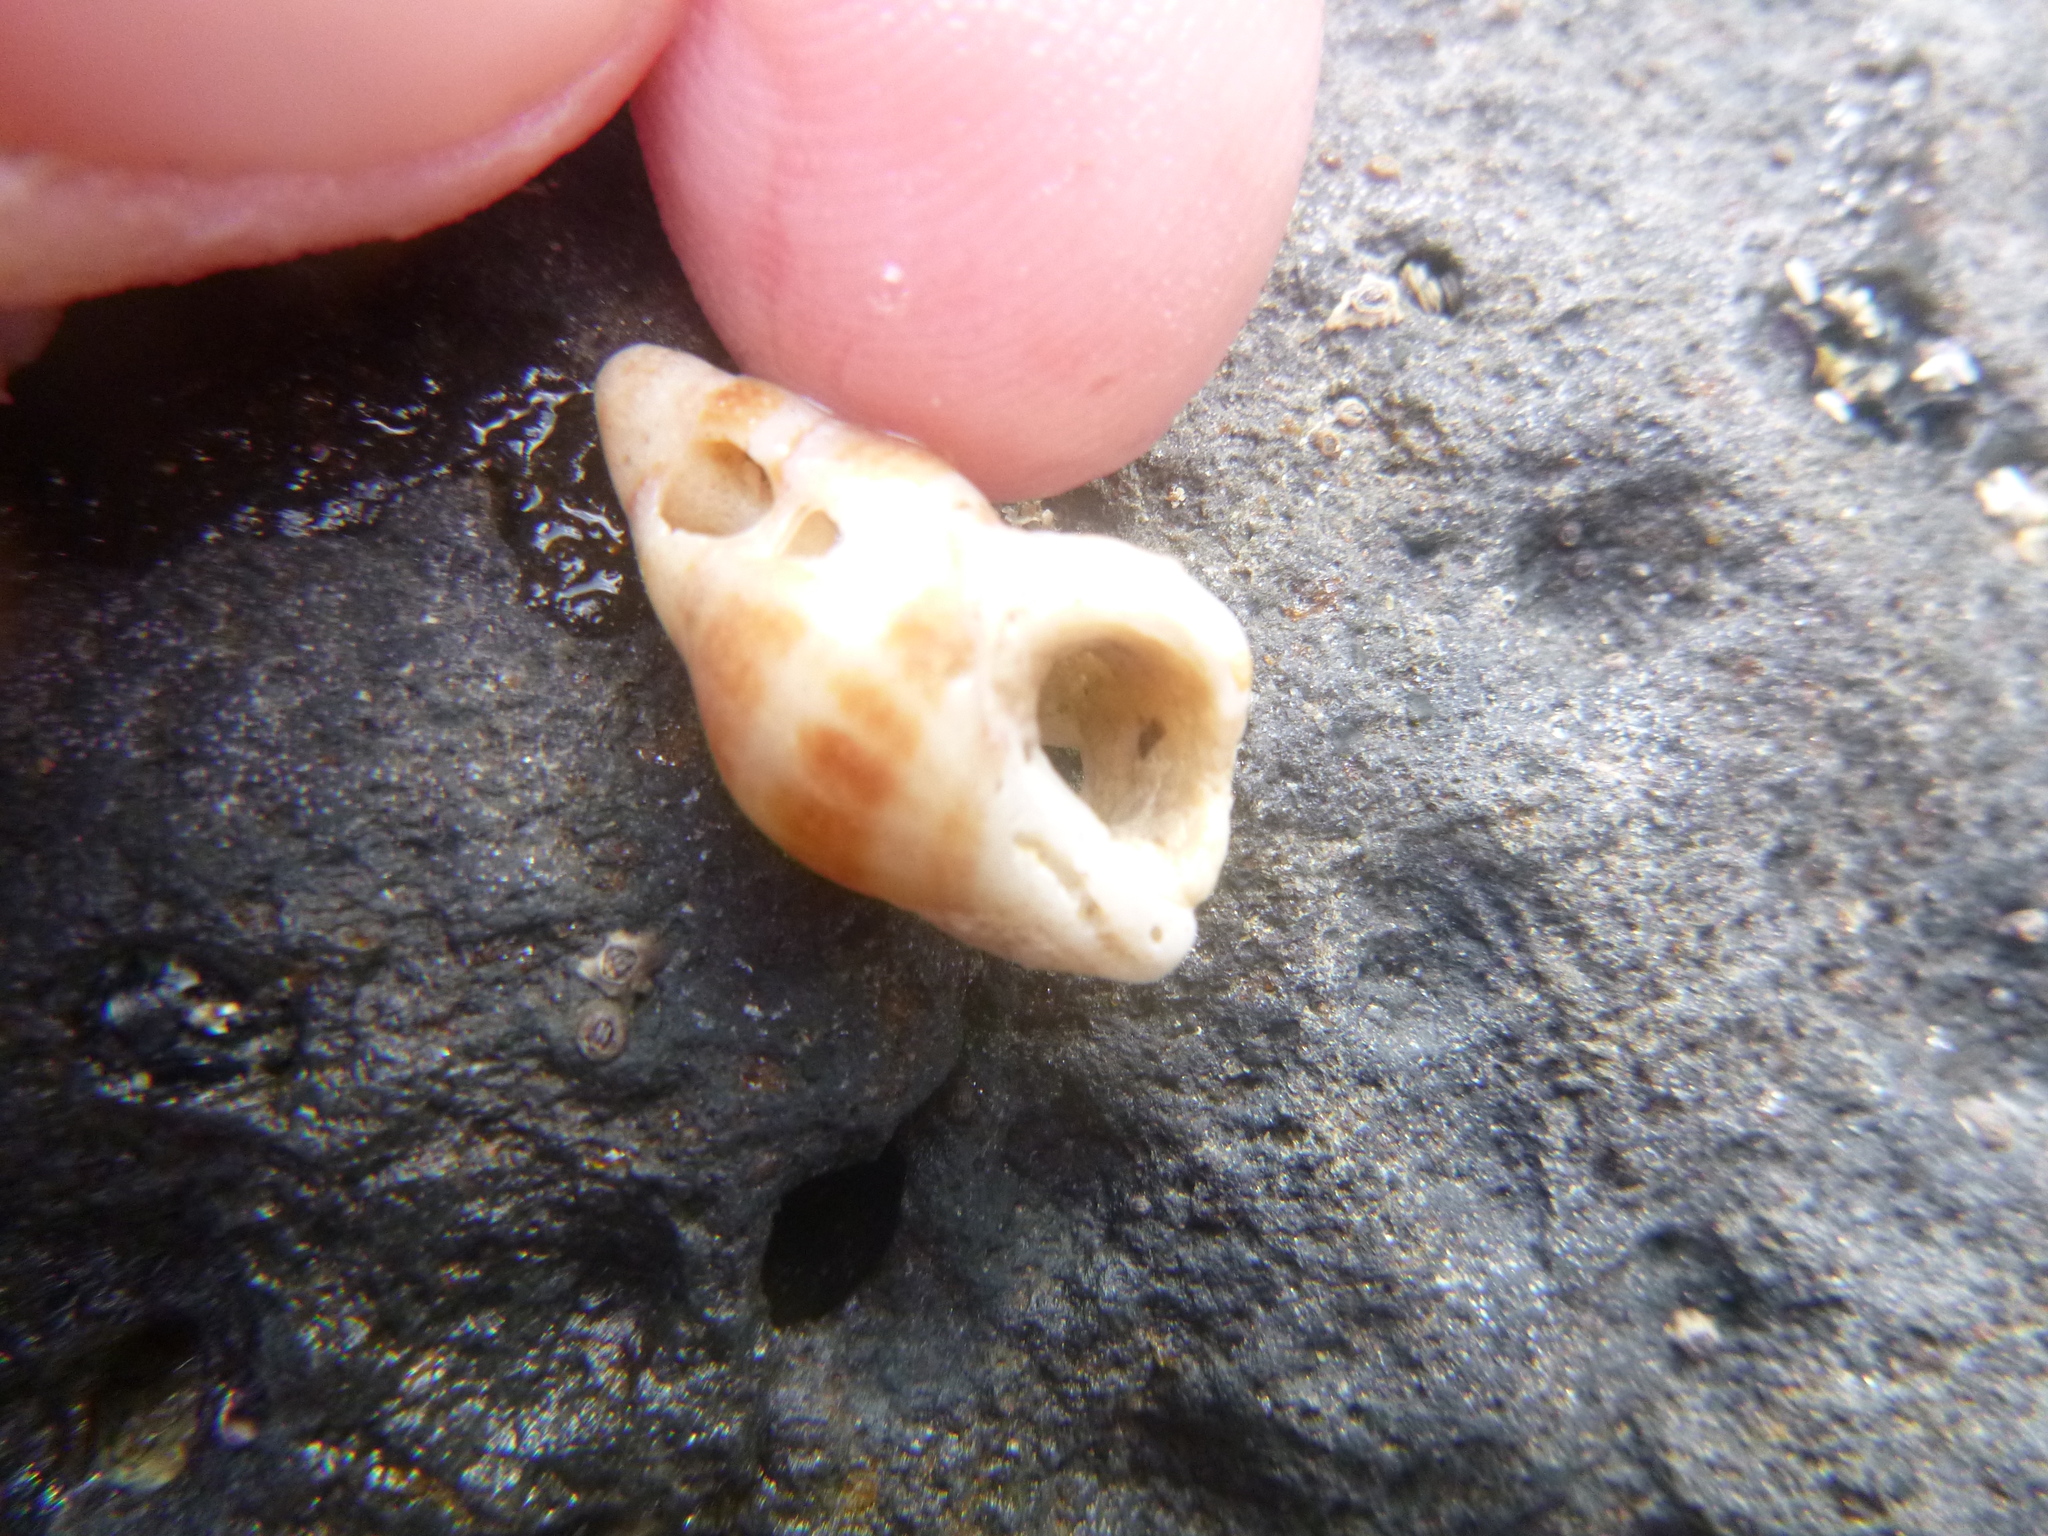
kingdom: Animalia
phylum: Mollusca
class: Gastropoda
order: Neogastropoda
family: Tudiclidae
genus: Buccinulum
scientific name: Buccinulum vittatum
